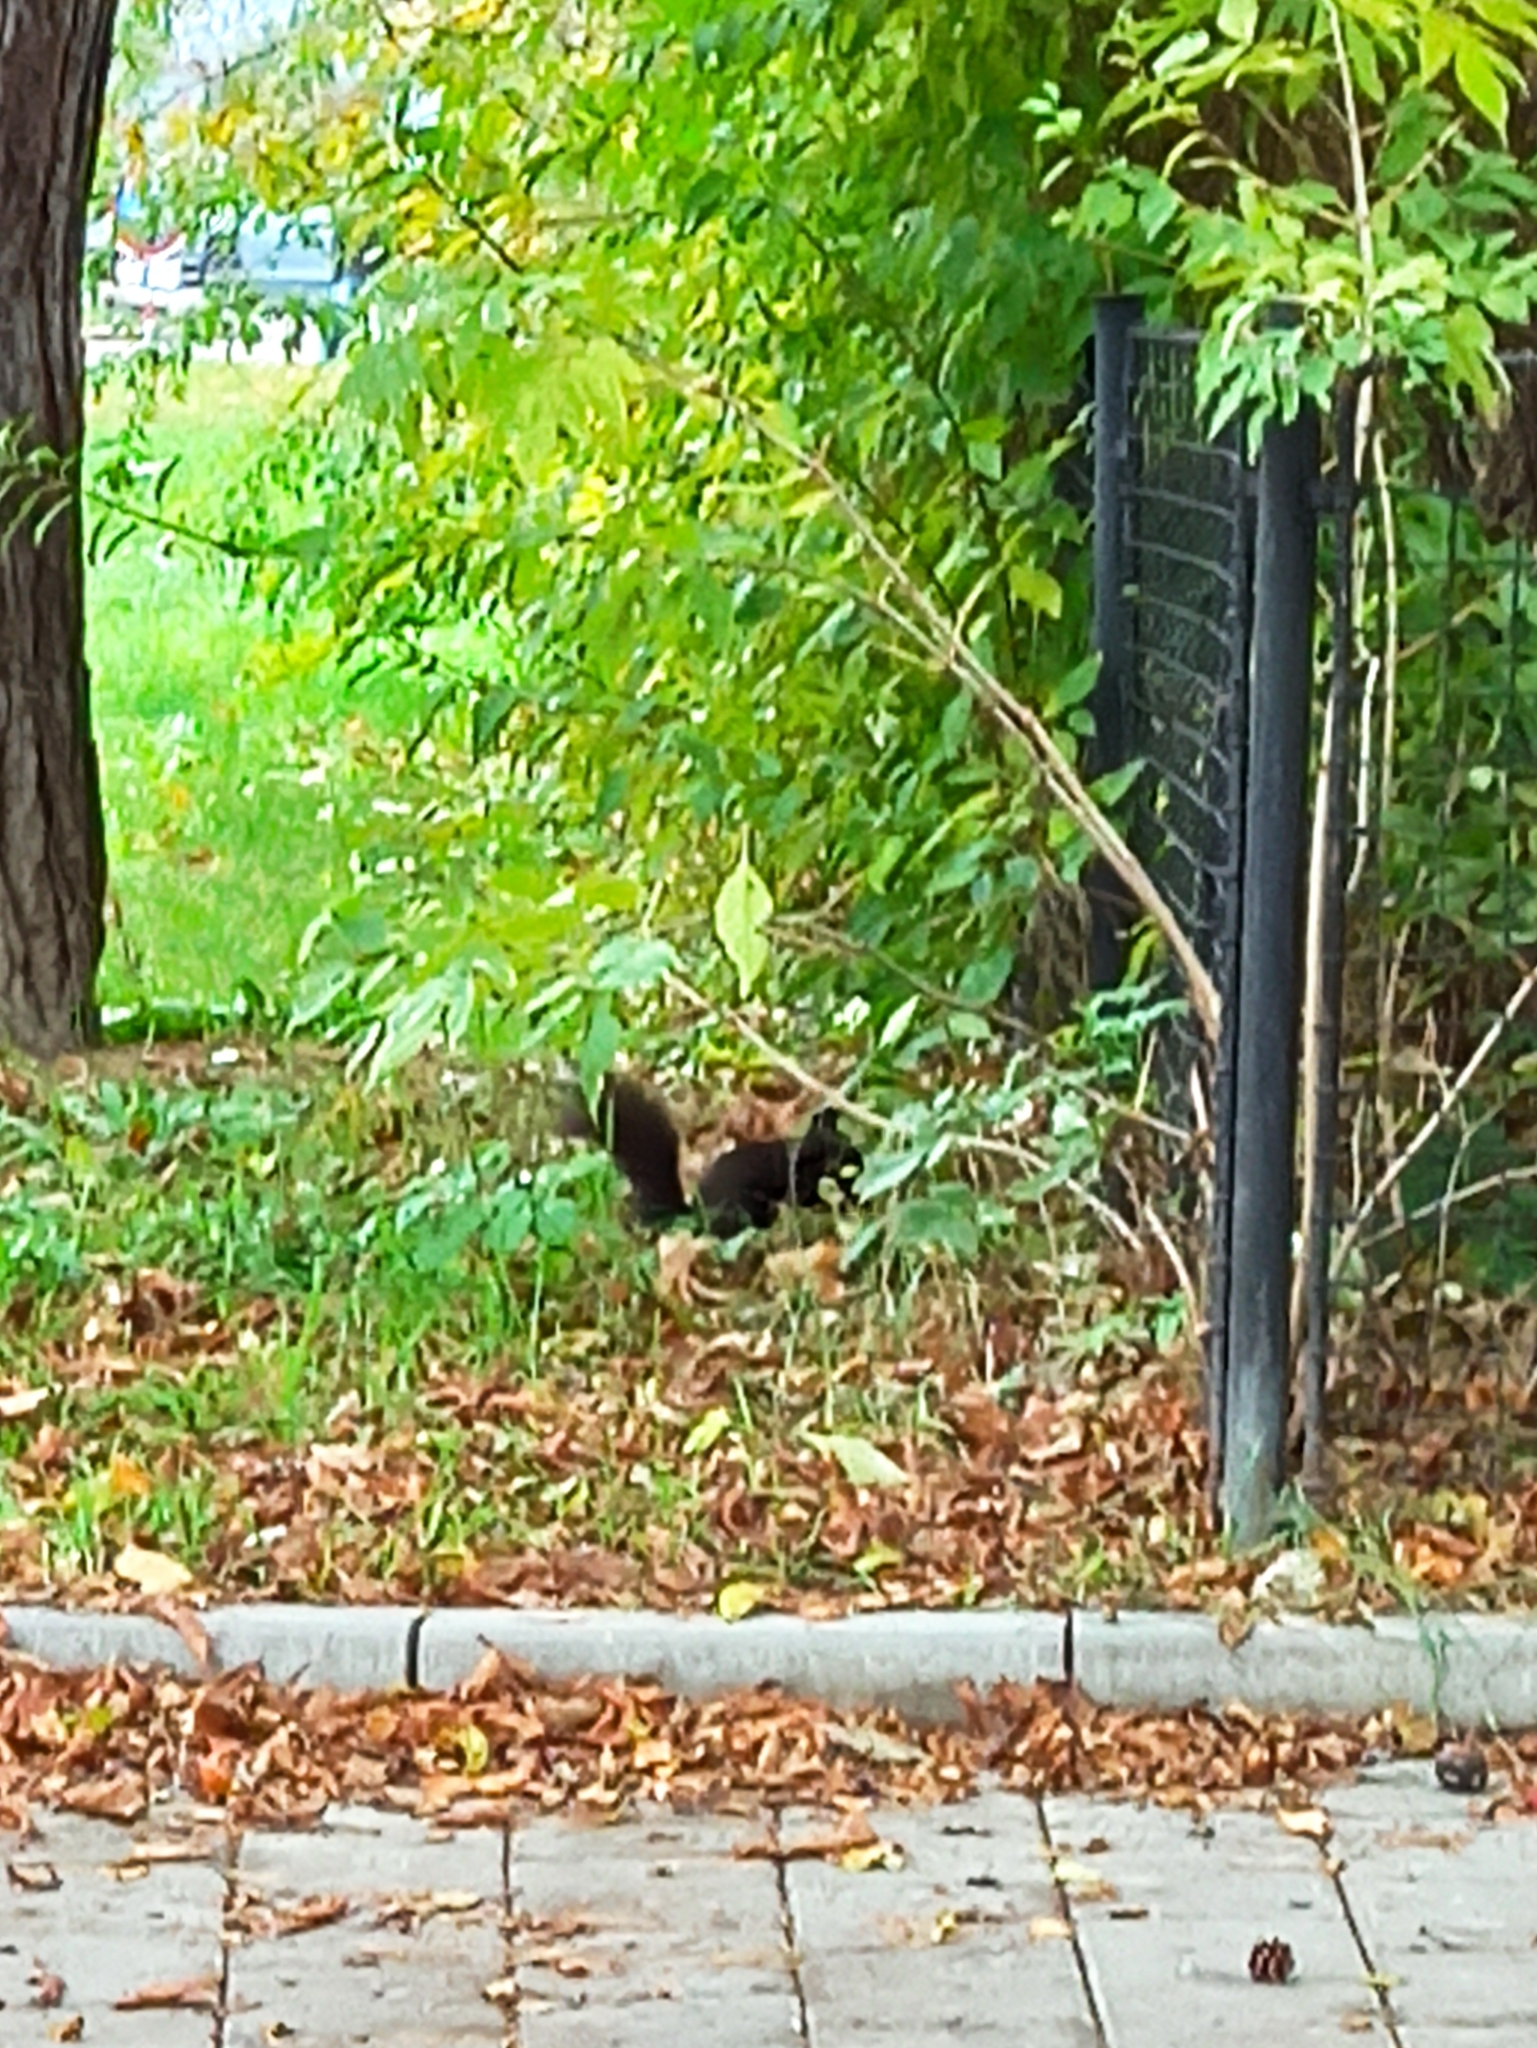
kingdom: Animalia
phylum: Chordata
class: Mammalia
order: Rodentia
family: Sciuridae
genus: Sciurus
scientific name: Sciurus vulgaris
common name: Eurasian red squirrel
